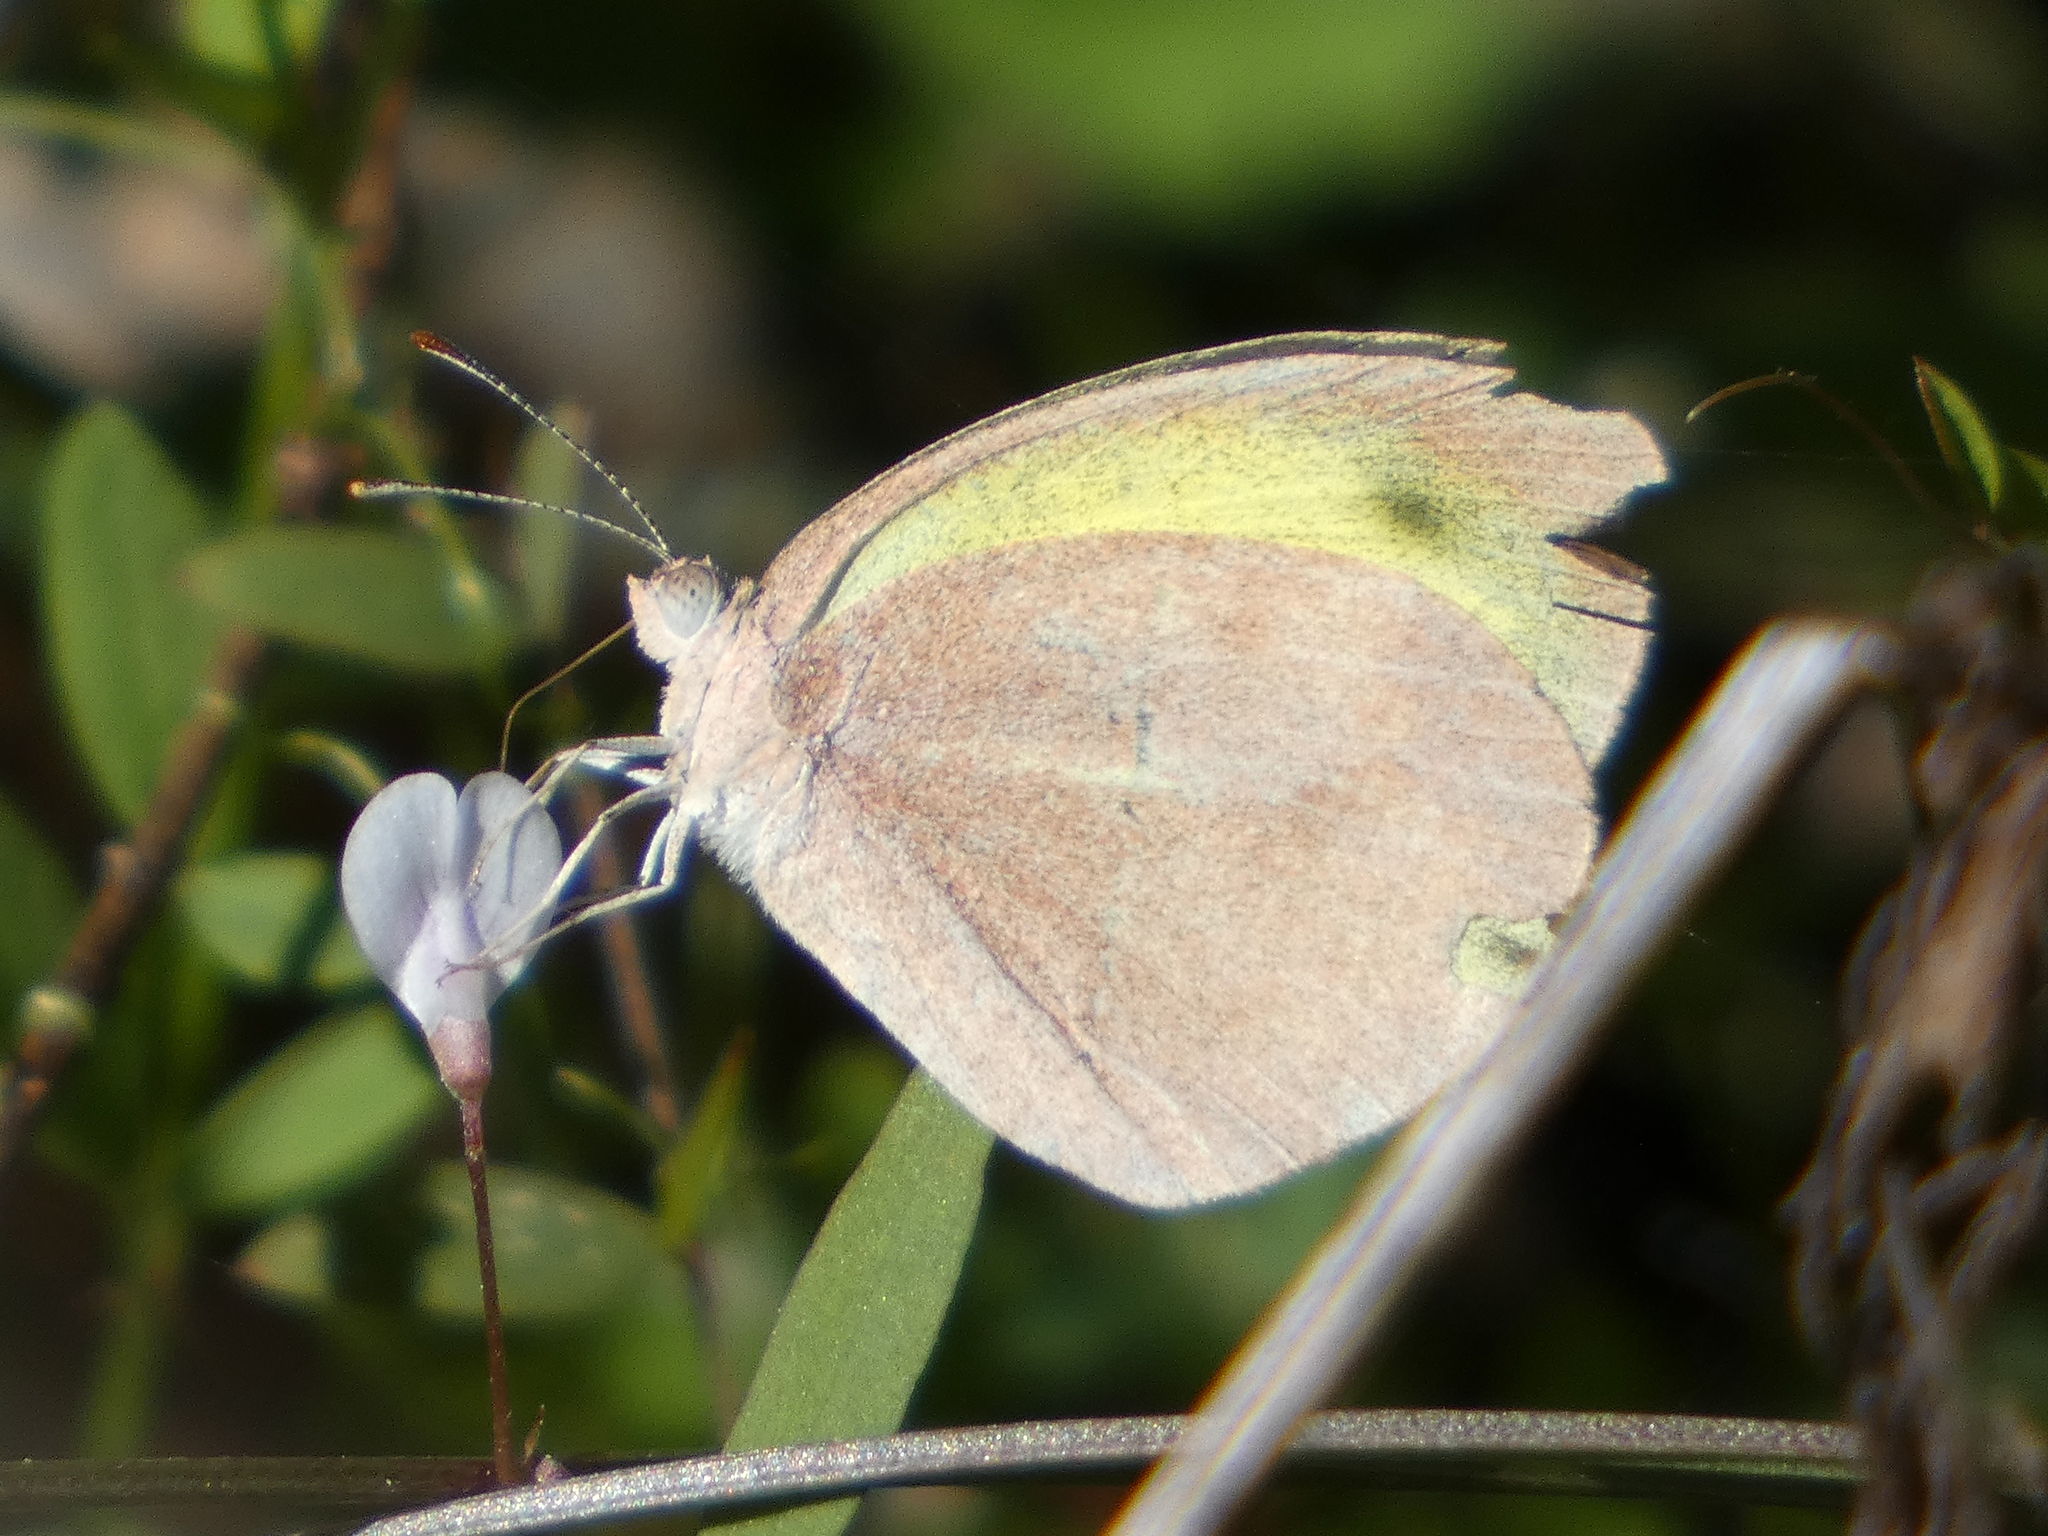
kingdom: Animalia
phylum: Arthropoda
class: Insecta
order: Lepidoptera
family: Pieridae
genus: Eurema
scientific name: Eurema daira
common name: Barred sulphur
